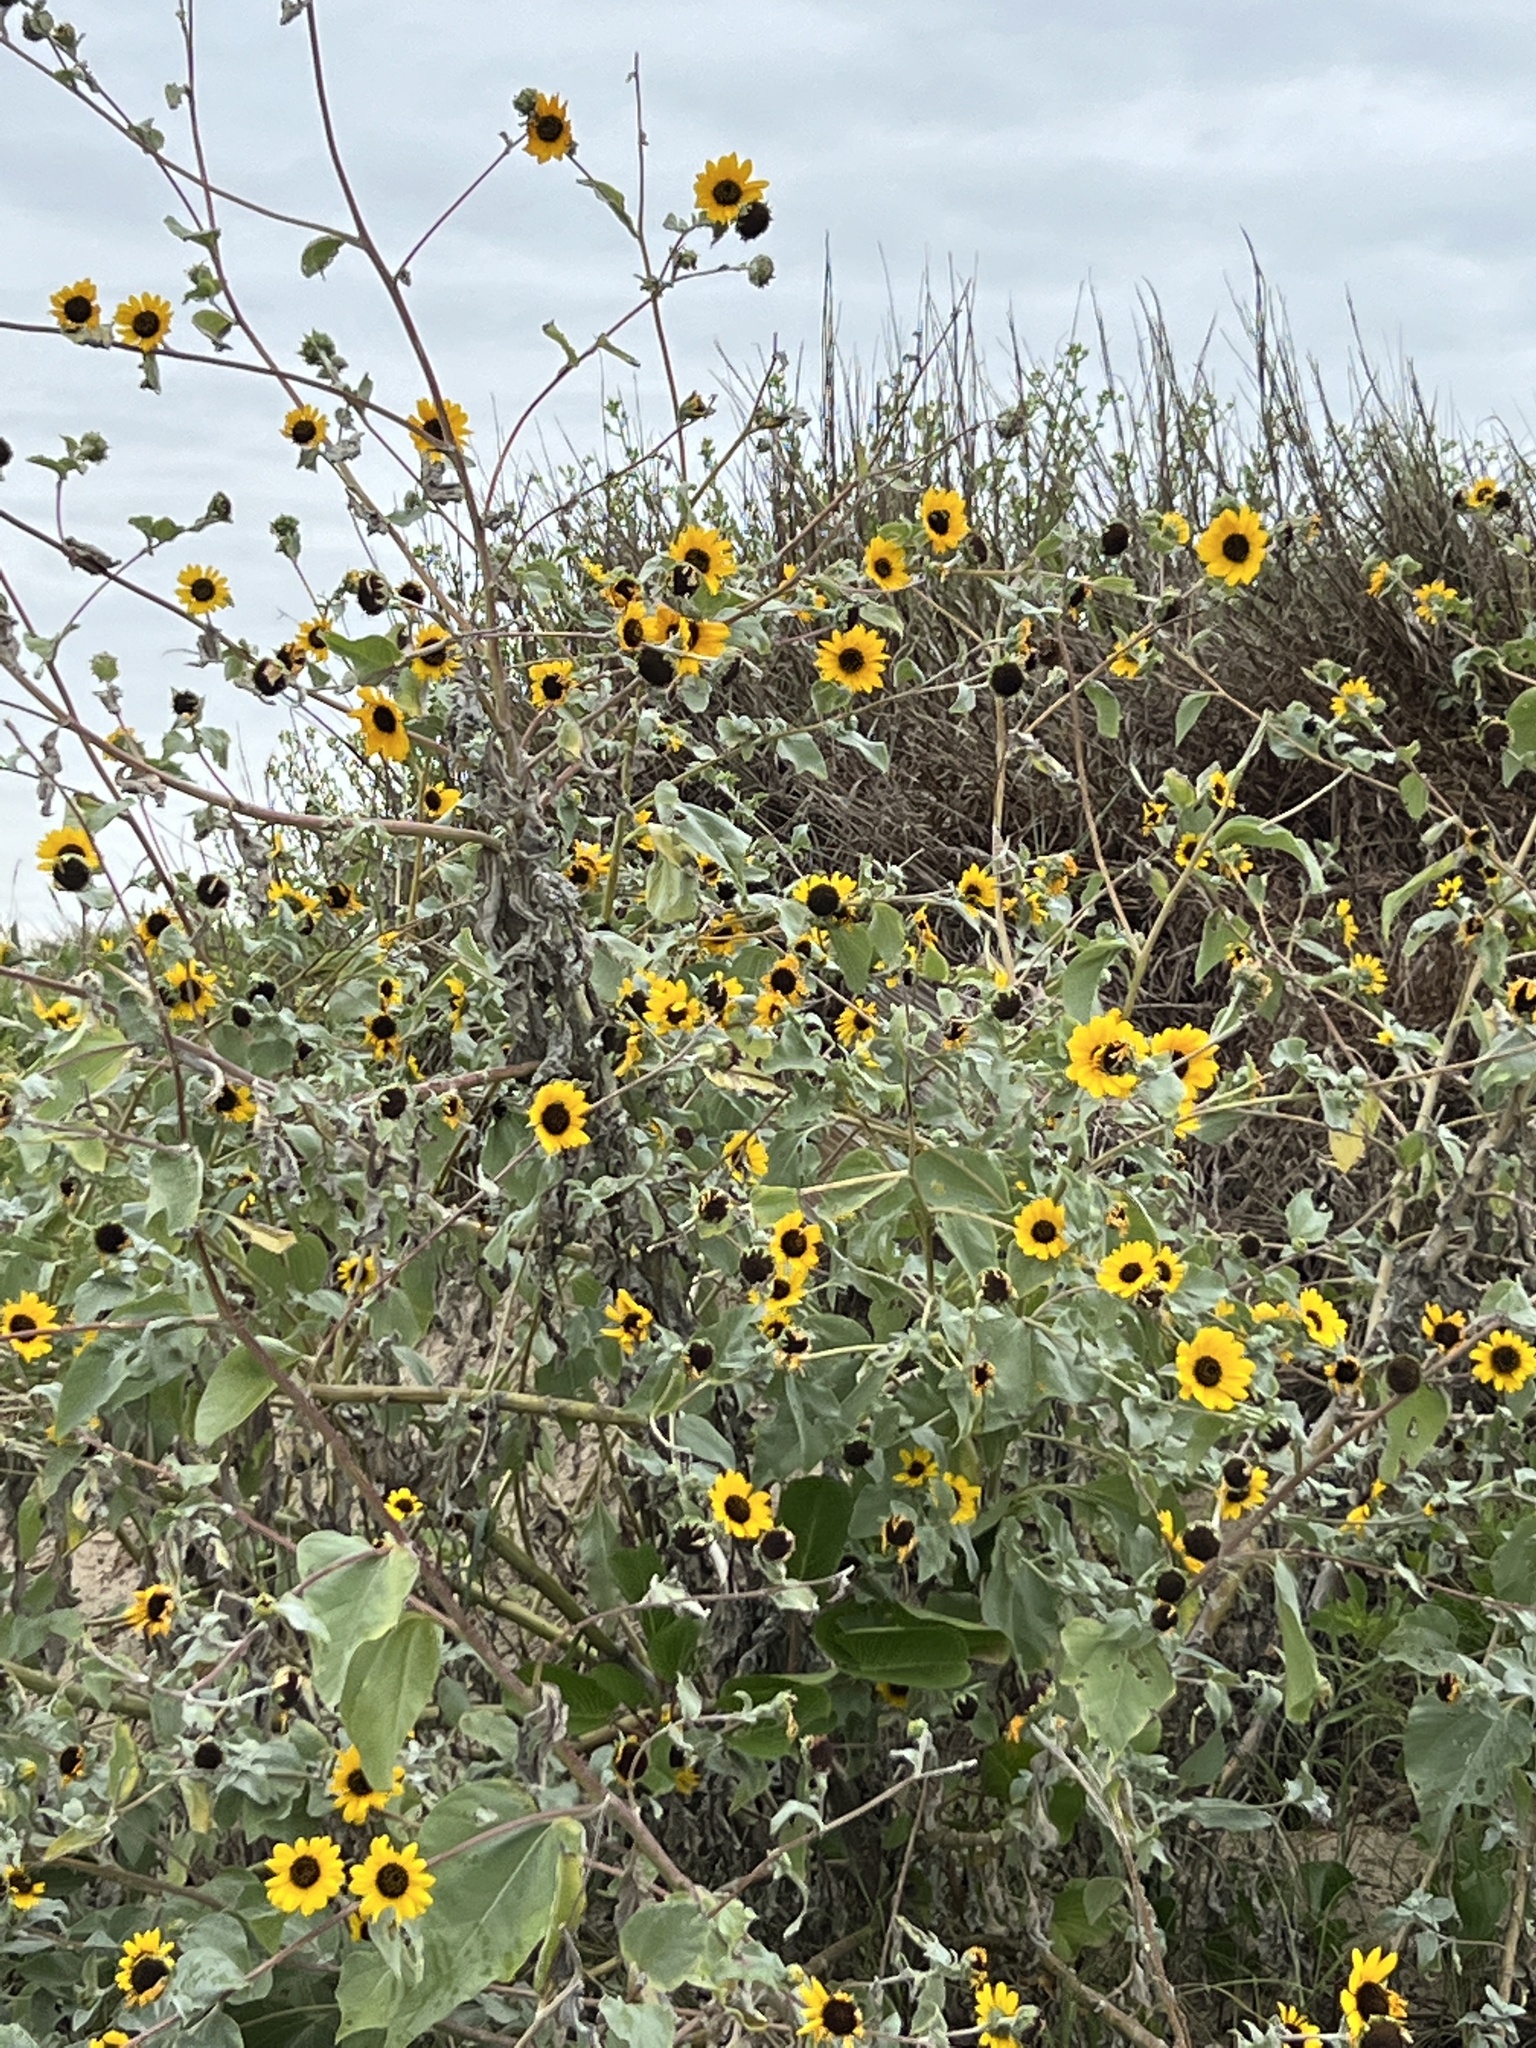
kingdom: Plantae
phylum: Tracheophyta
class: Magnoliopsida
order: Asterales
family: Asteraceae
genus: Helianthus
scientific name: Helianthus argophyllus
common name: Silverleaf sunflower
